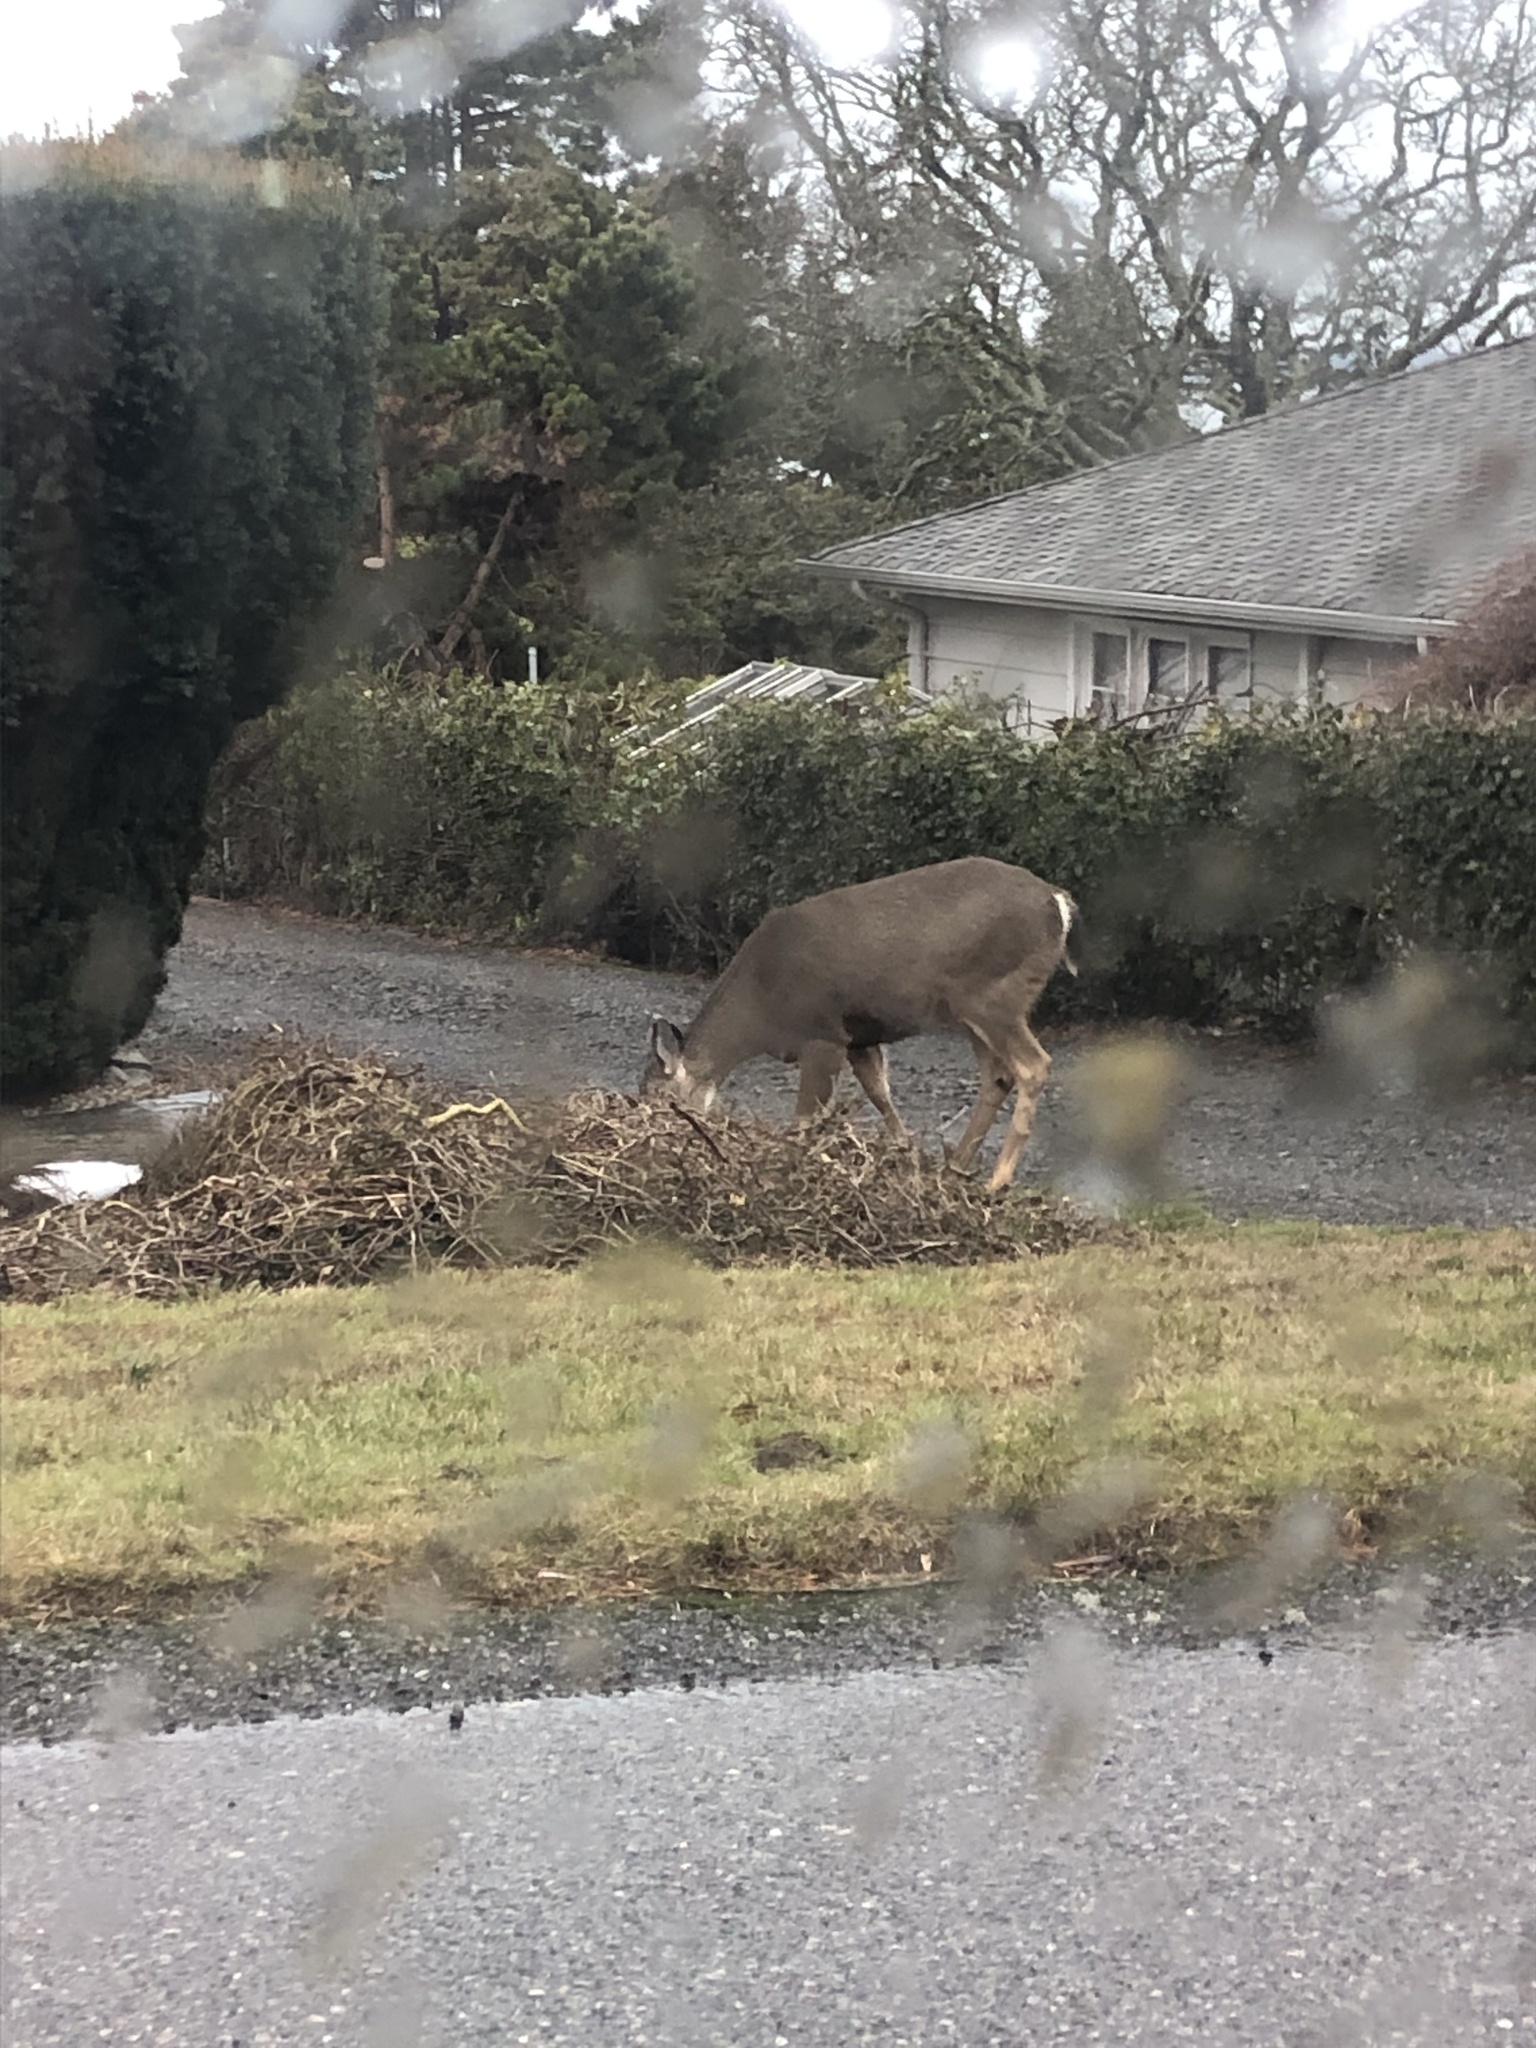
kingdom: Animalia
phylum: Chordata
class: Mammalia
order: Artiodactyla
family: Cervidae
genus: Odocoileus
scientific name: Odocoileus hemionus
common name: Mule deer
